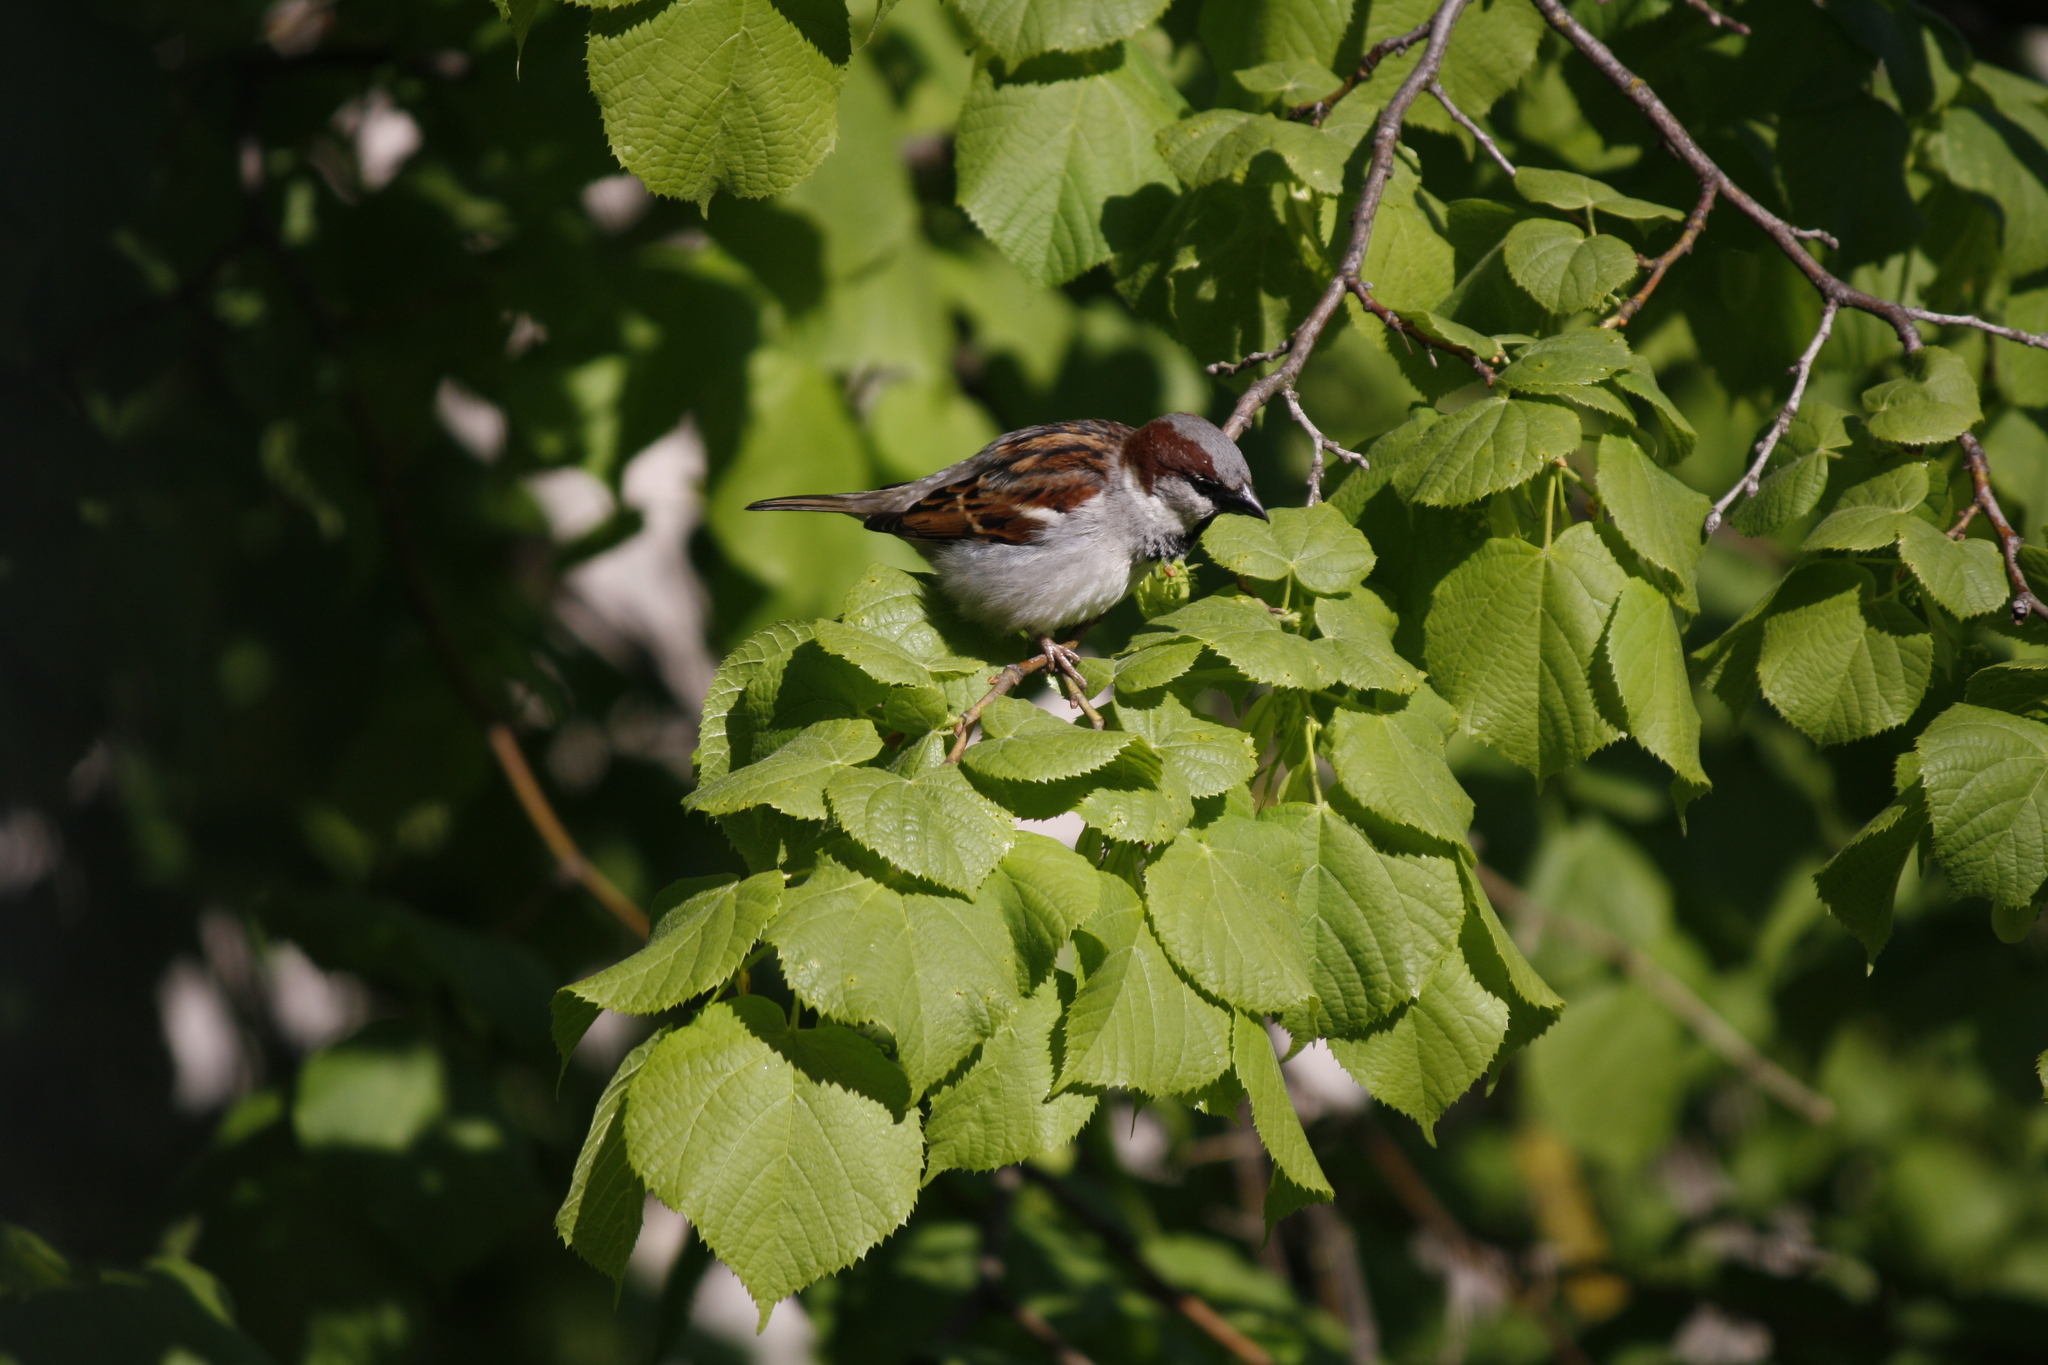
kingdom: Animalia
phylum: Chordata
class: Aves
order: Passeriformes
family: Passeridae
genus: Passer
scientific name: Passer domesticus
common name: House sparrow
